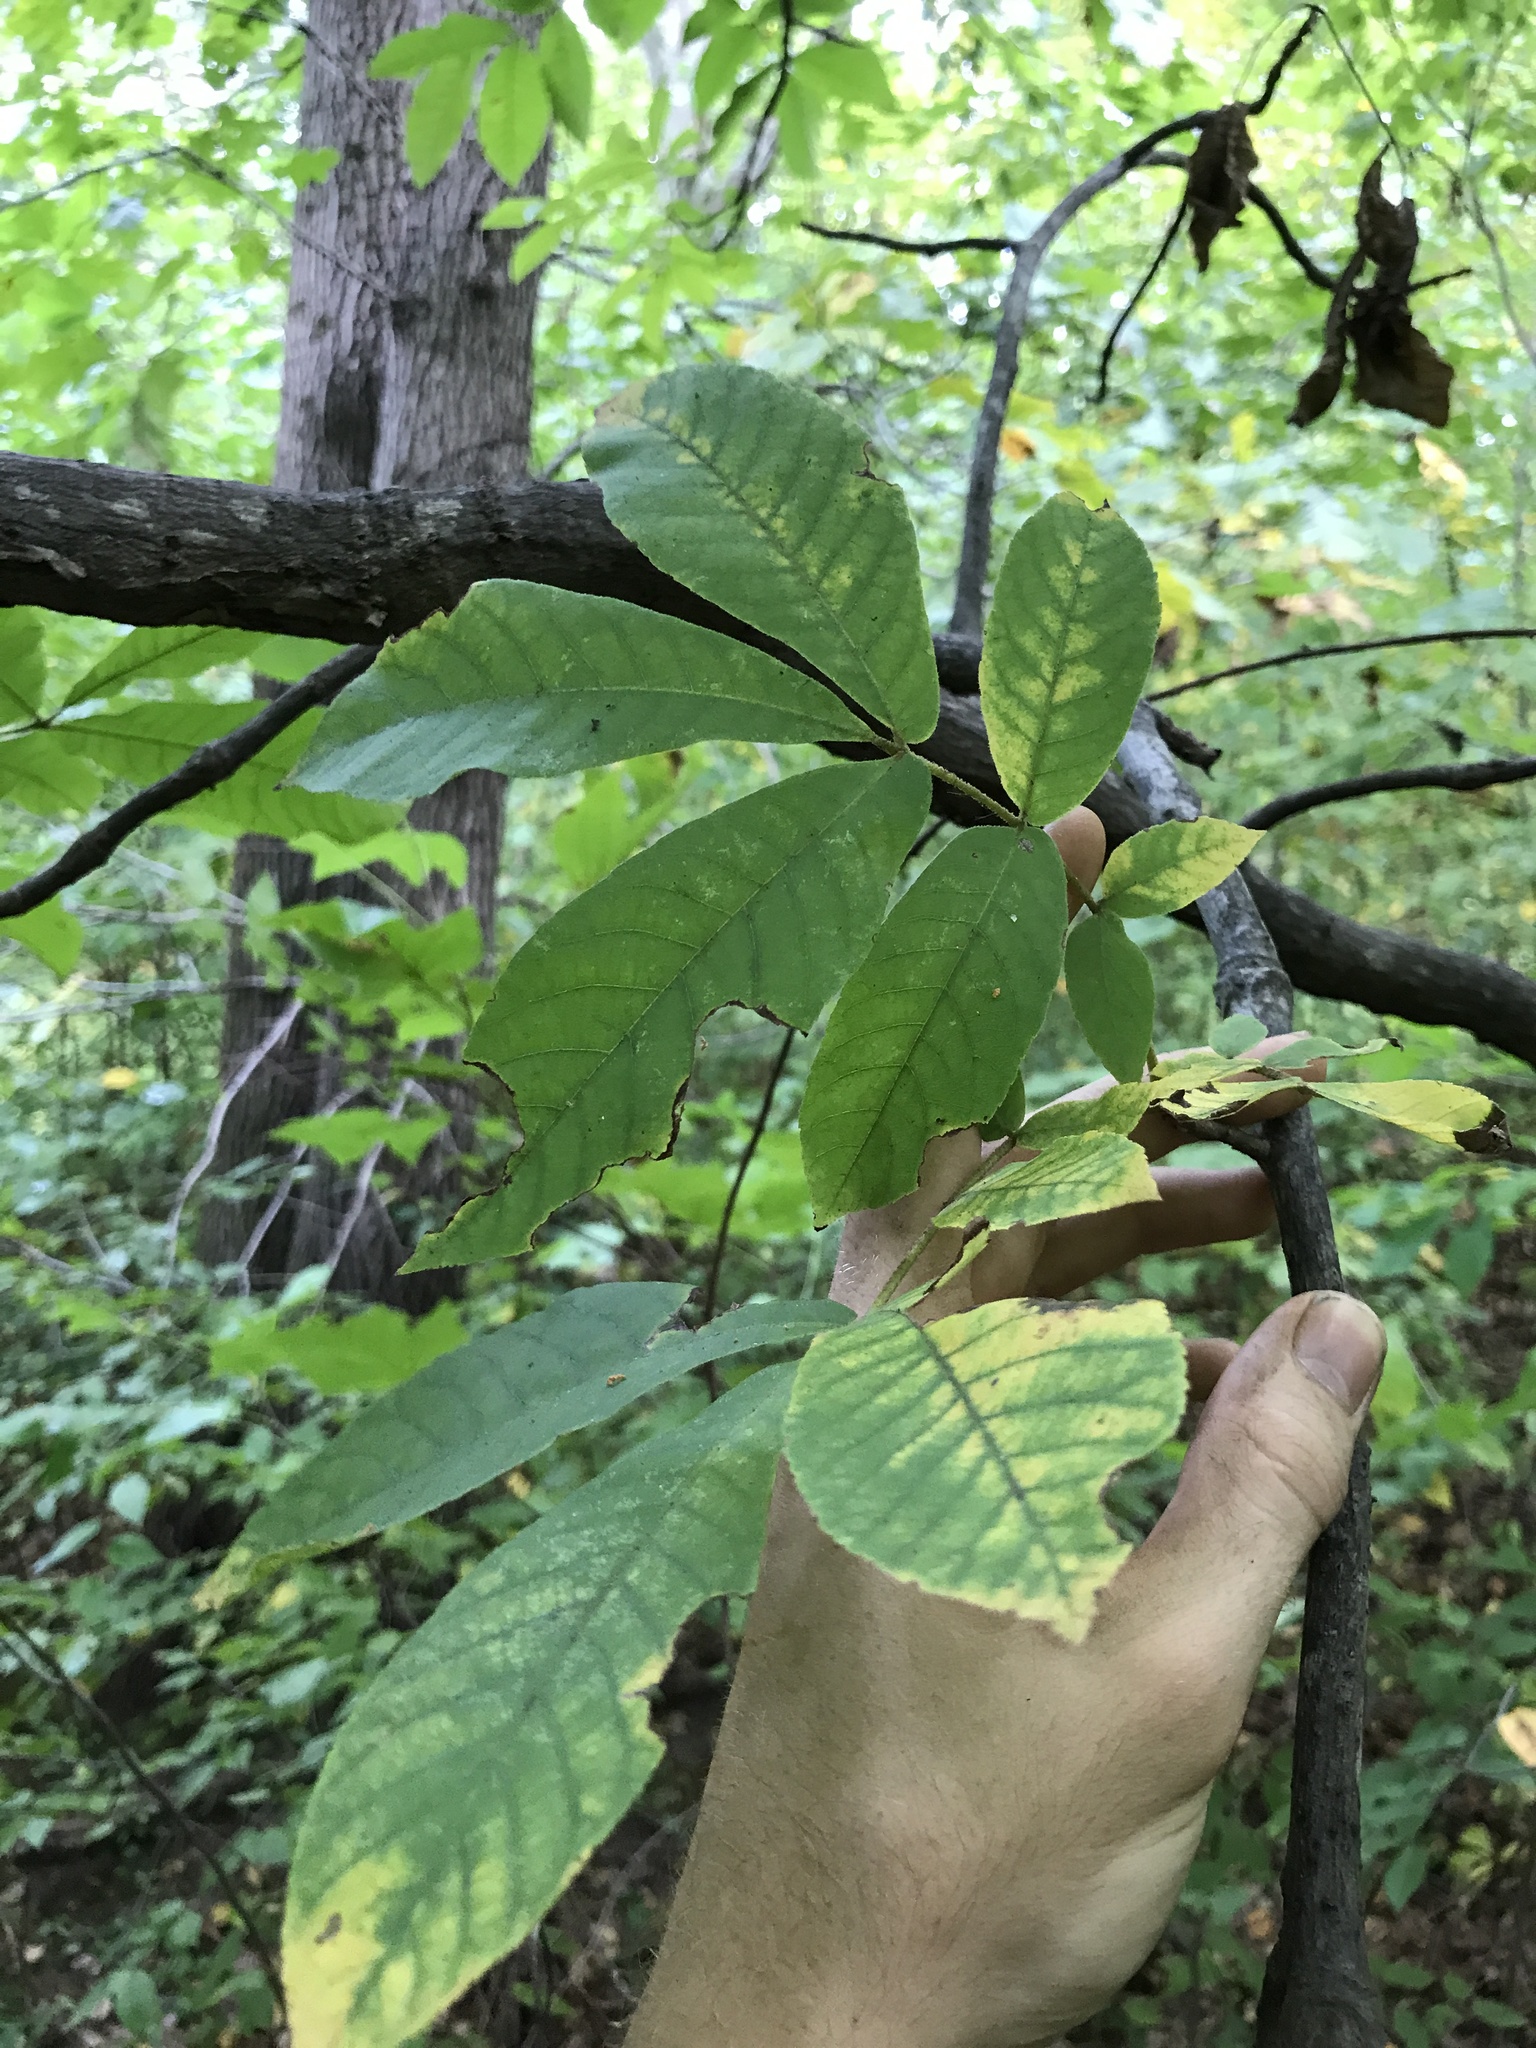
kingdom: Plantae
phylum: Tracheophyta
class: Magnoliopsida
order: Fagales
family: Juglandaceae
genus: Carya
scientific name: Carya alba
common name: Mockernut hickory
